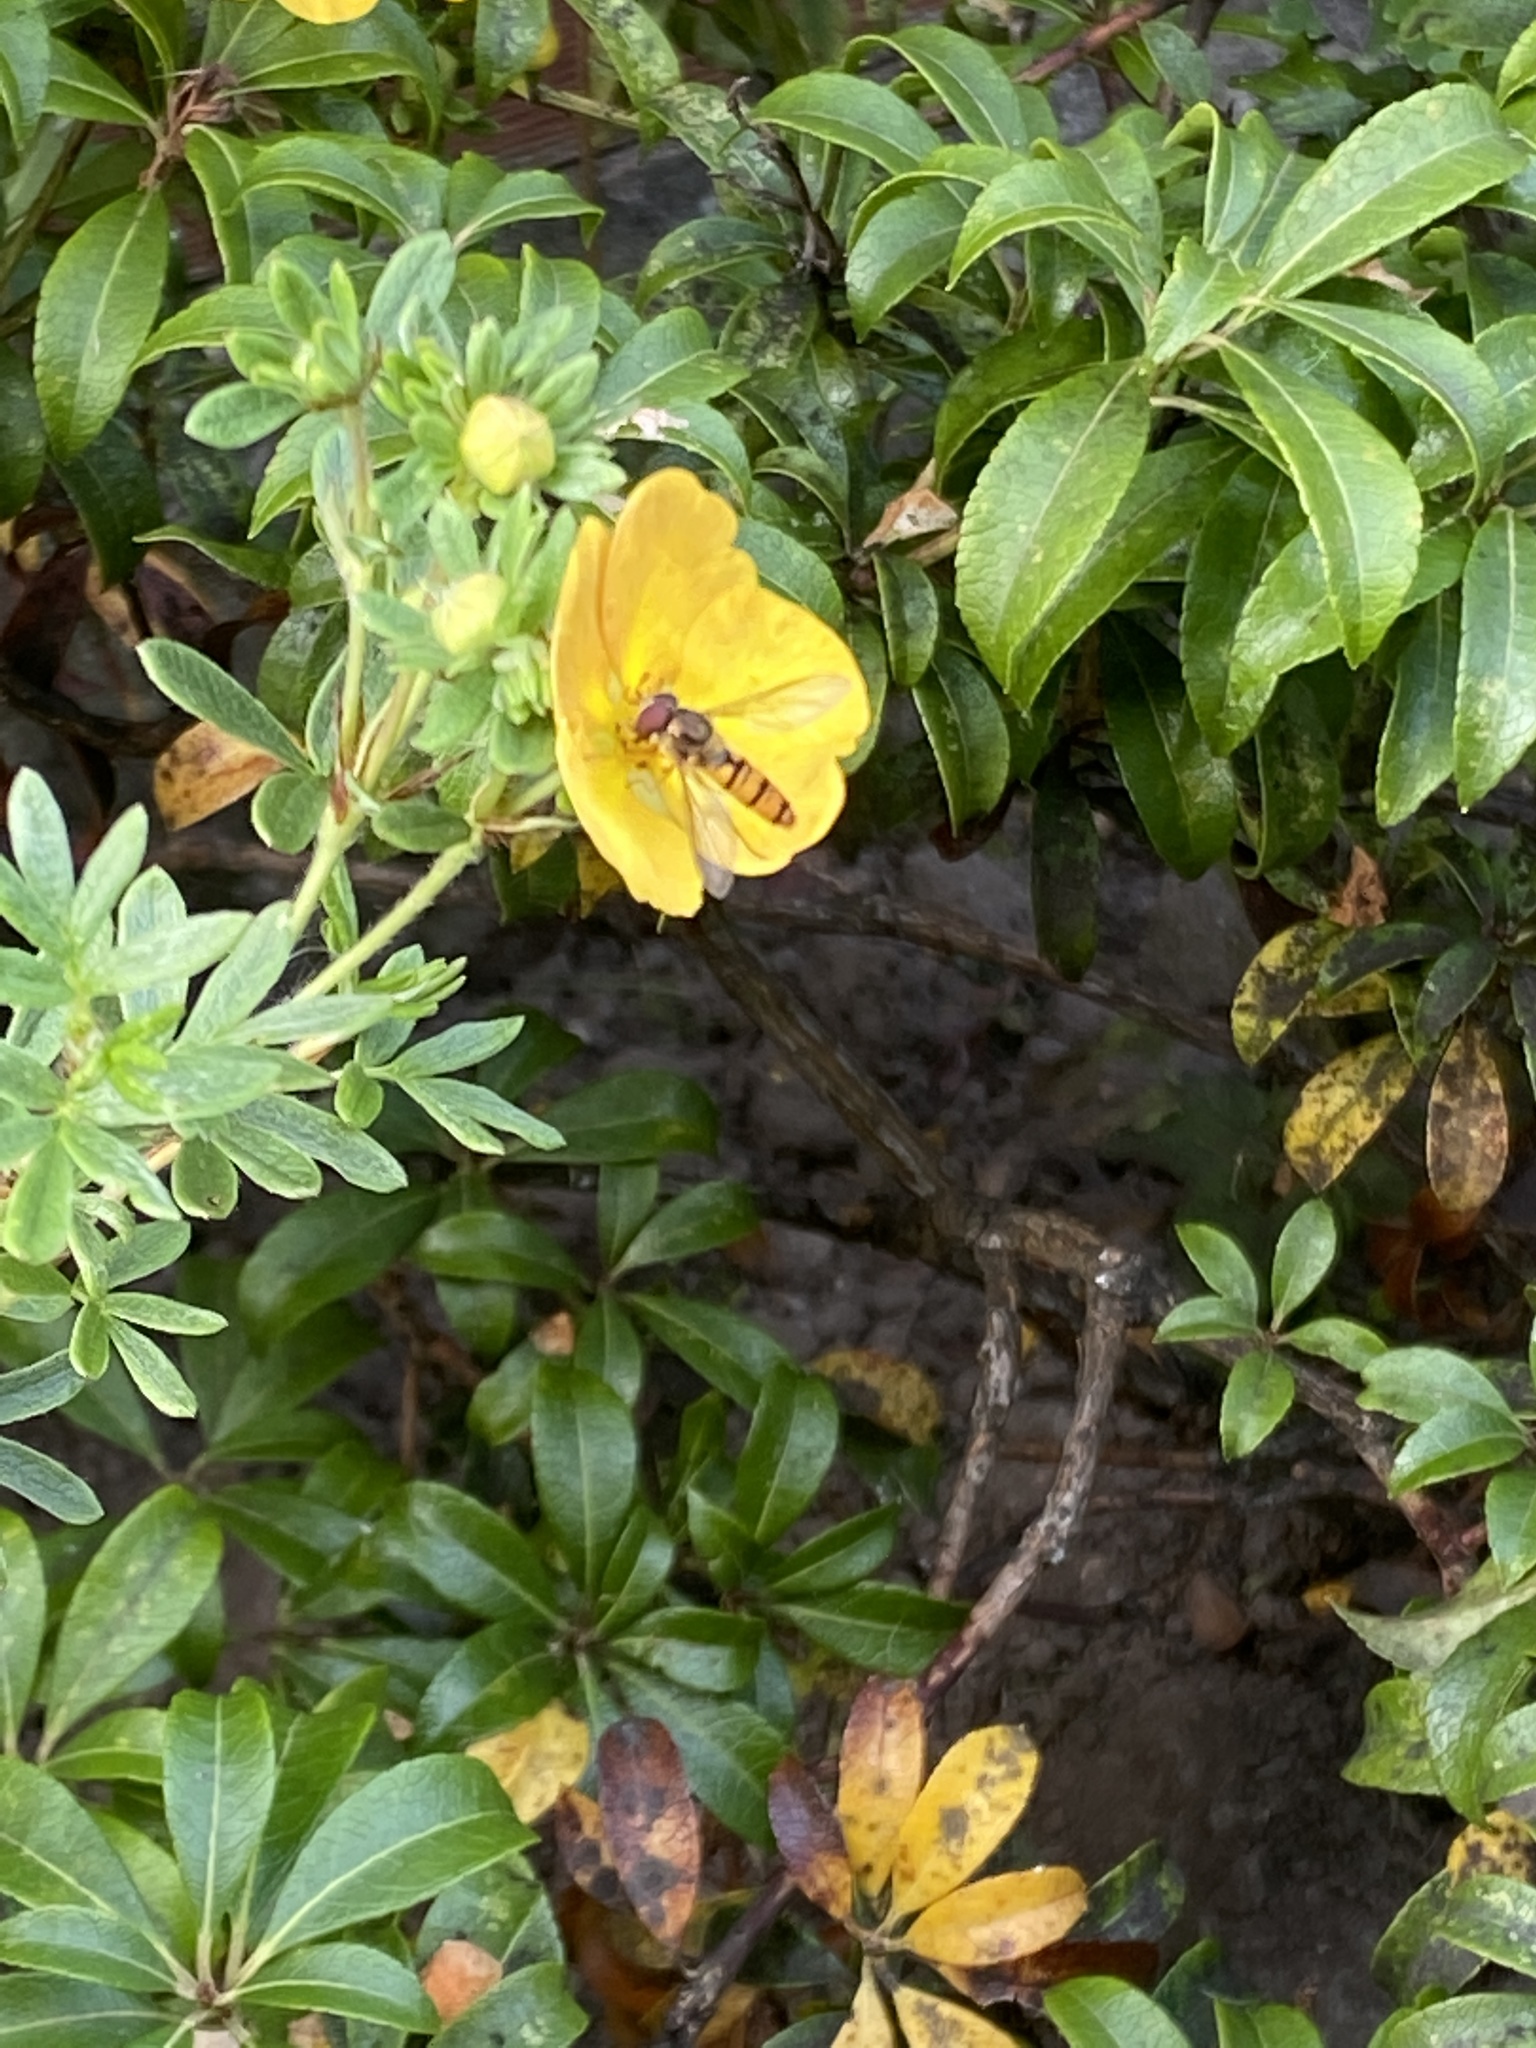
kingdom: Animalia
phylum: Arthropoda
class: Insecta
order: Diptera
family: Syrphidae
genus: Episyrphus
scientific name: Episyrphus balteatus
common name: Marmalade hoverfly
